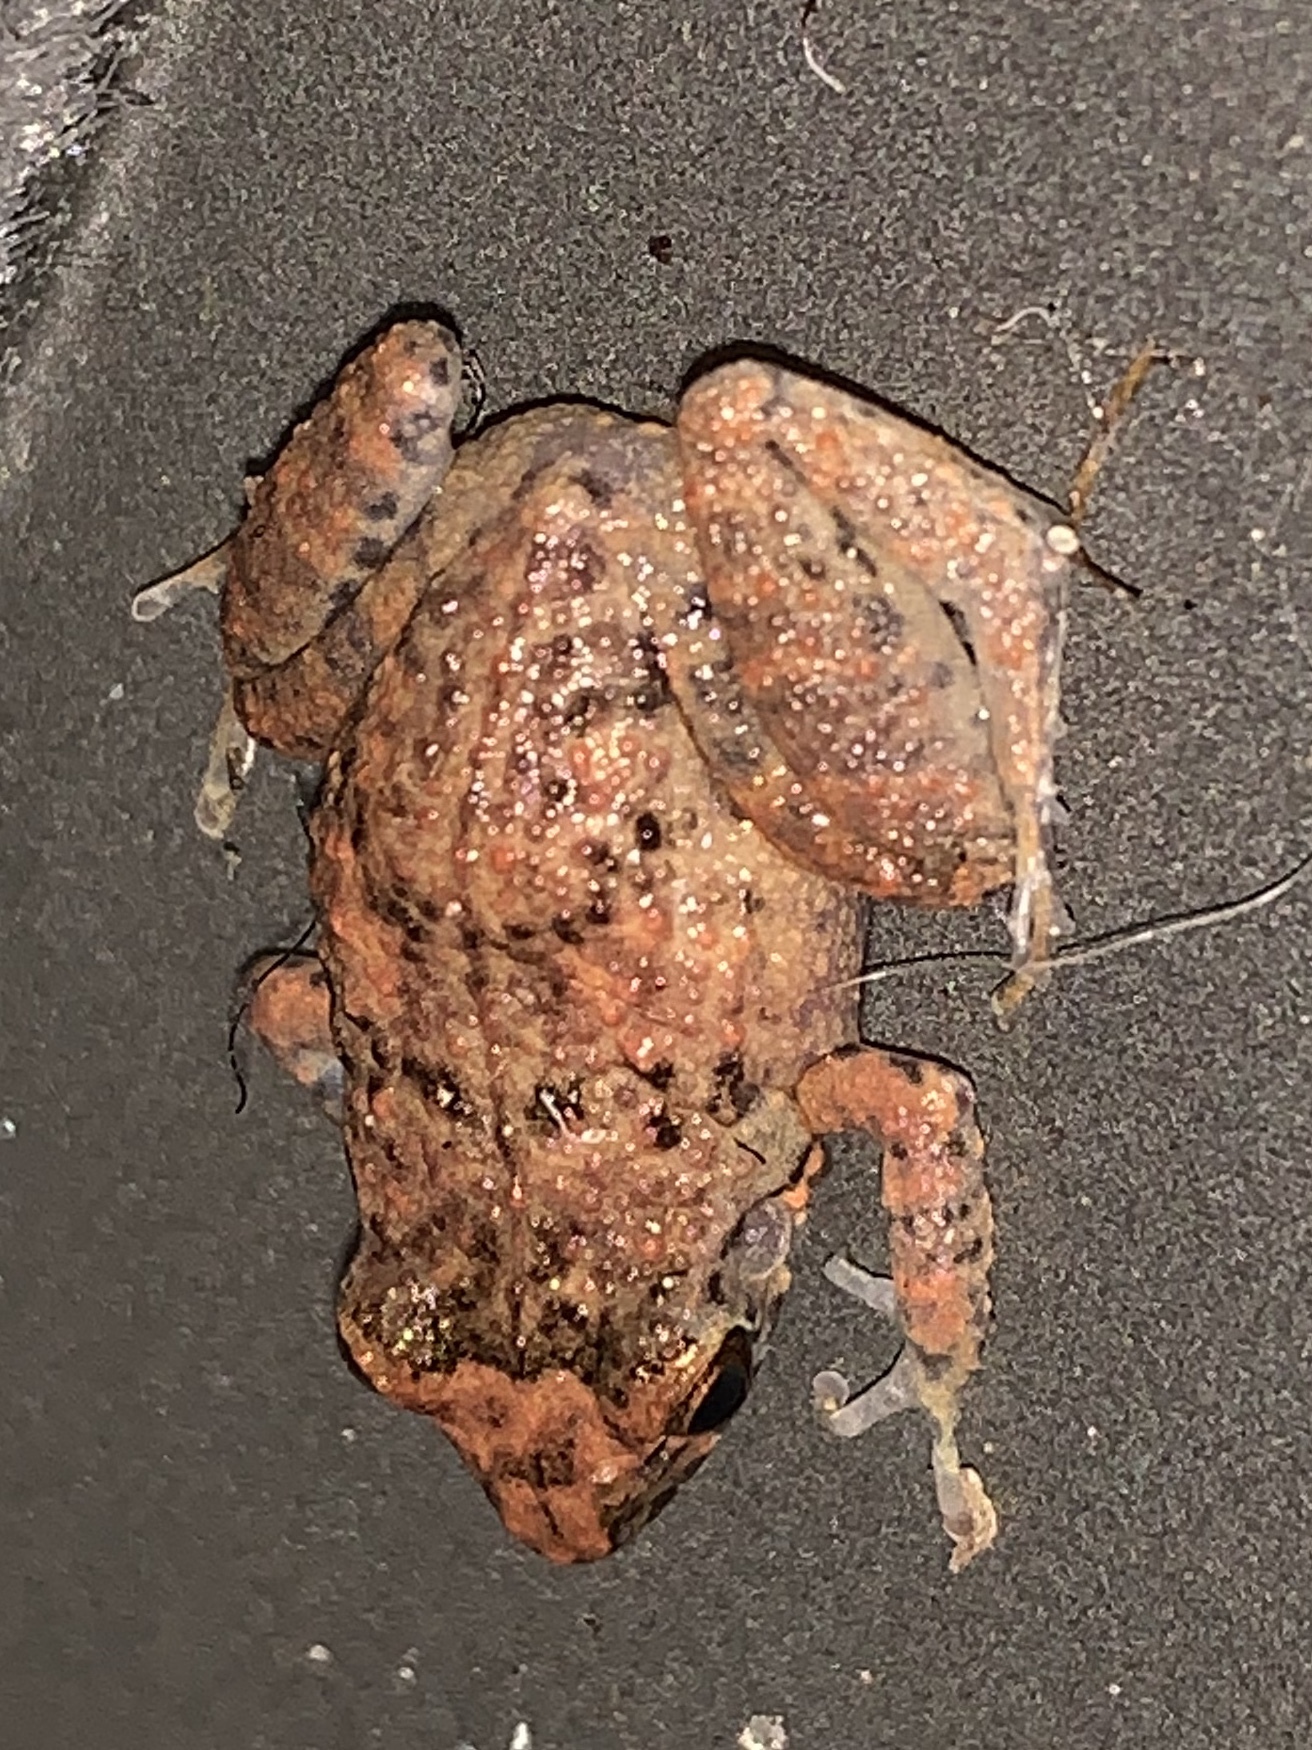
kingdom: Animalia
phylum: Chordata
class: Amphibia
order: Anura
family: Eleutherodactylidae
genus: Eleutherodactylus
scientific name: Eleutherodactylus planirostris
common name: Greenhouse frog
